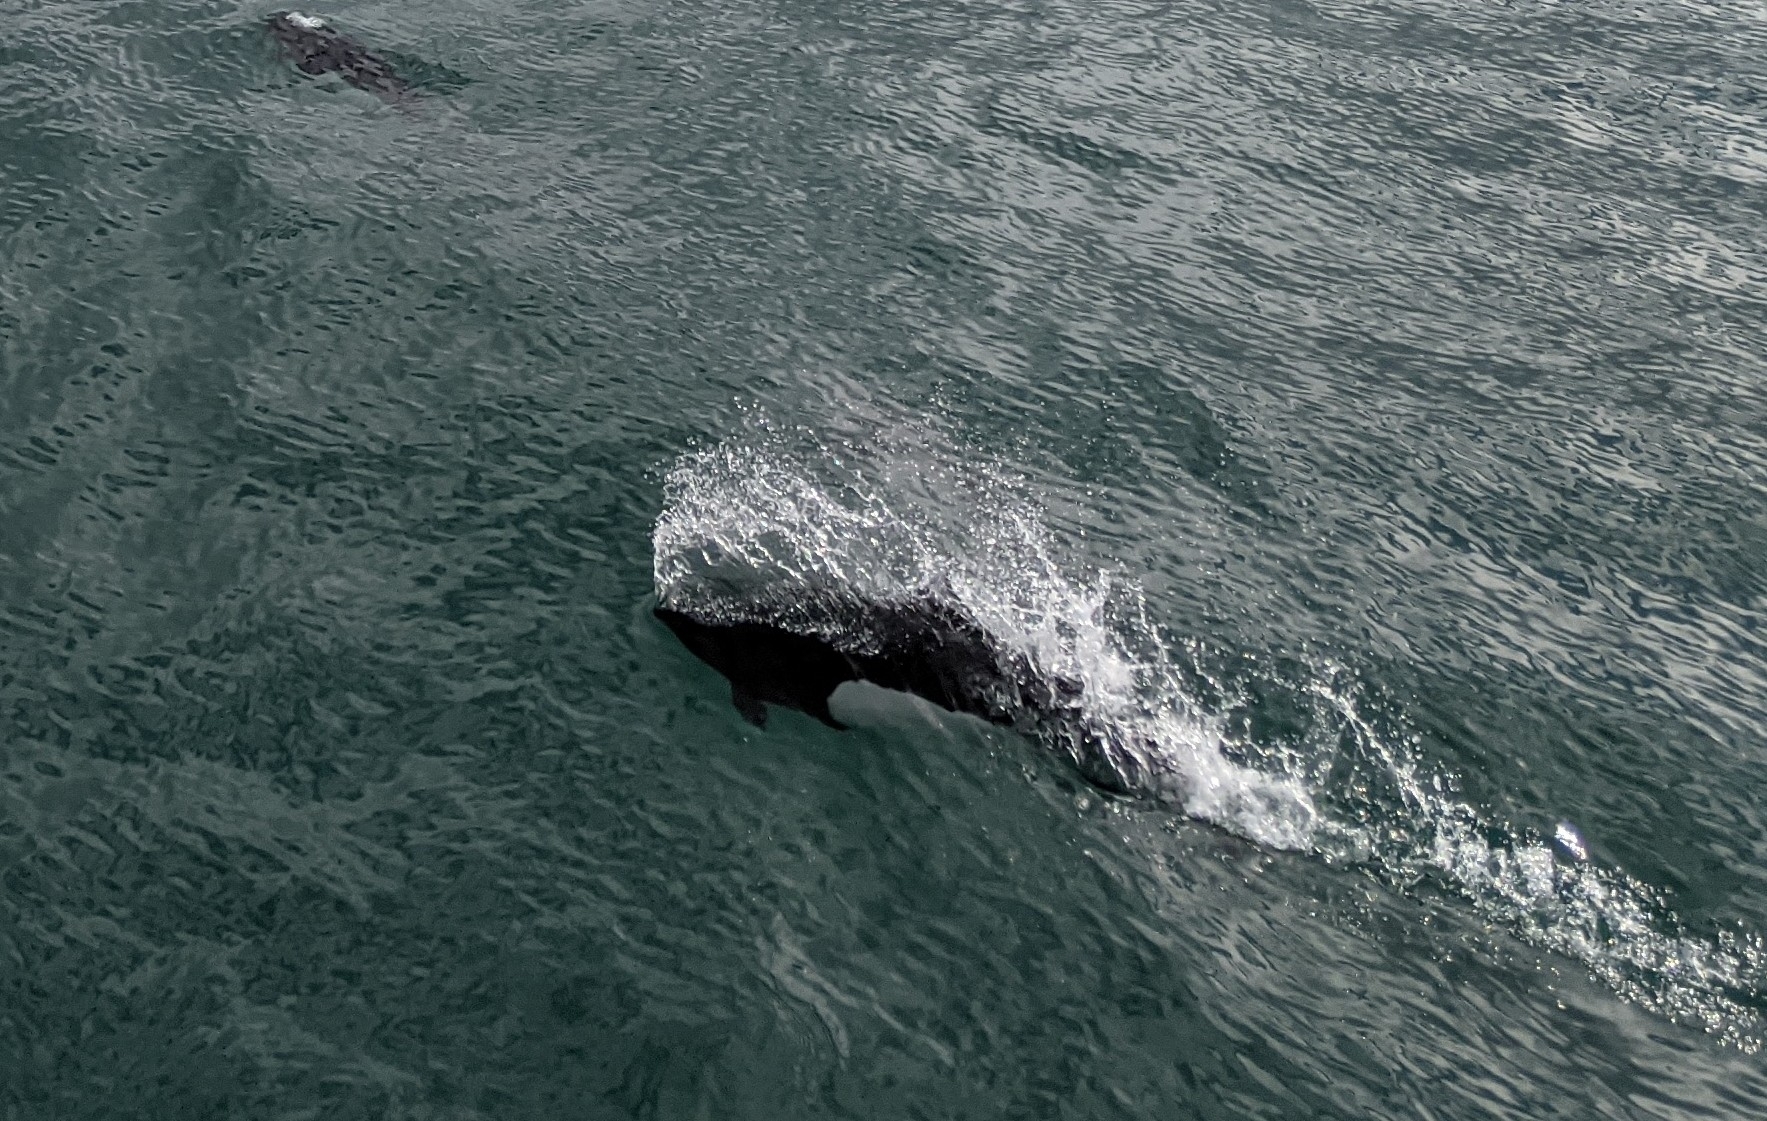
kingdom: Animalia
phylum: Chordata
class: Mammalia
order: Cetacea
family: Phocoenidae
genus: Phocoenoides
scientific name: Phocoenoides dalli
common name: Dall's porpoise
